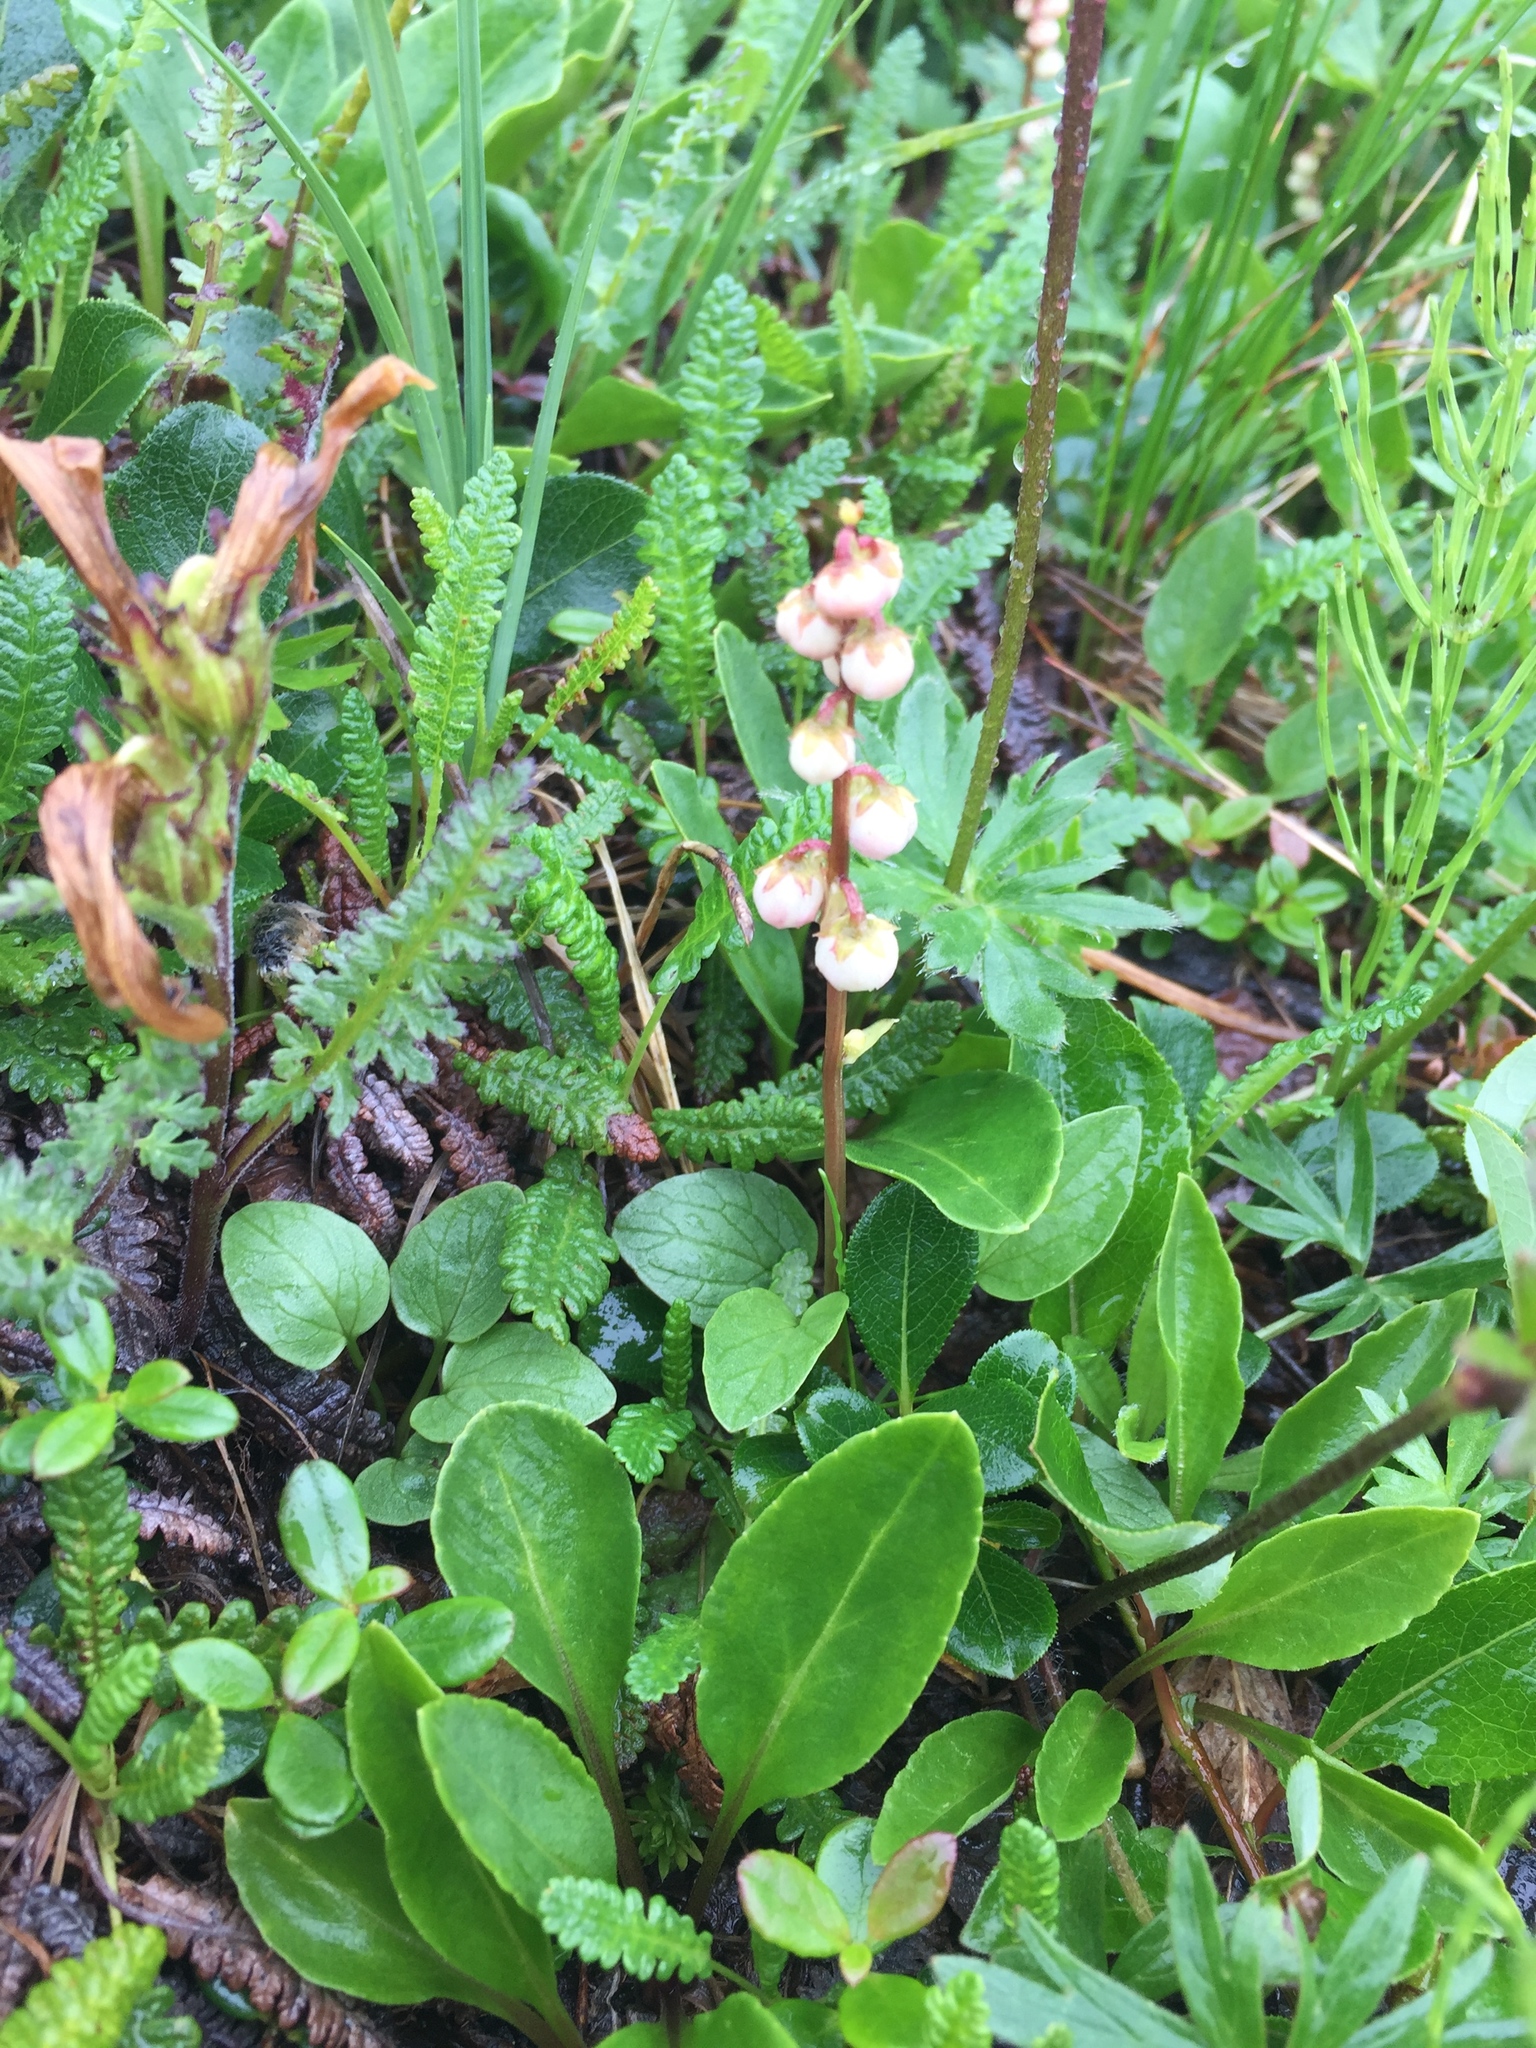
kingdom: Plantae
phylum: Tracheophyta
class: Magnoliopsida
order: Ericales
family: Ericaceae
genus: Pyrola
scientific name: Pyrola minor
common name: Common wintergreen
